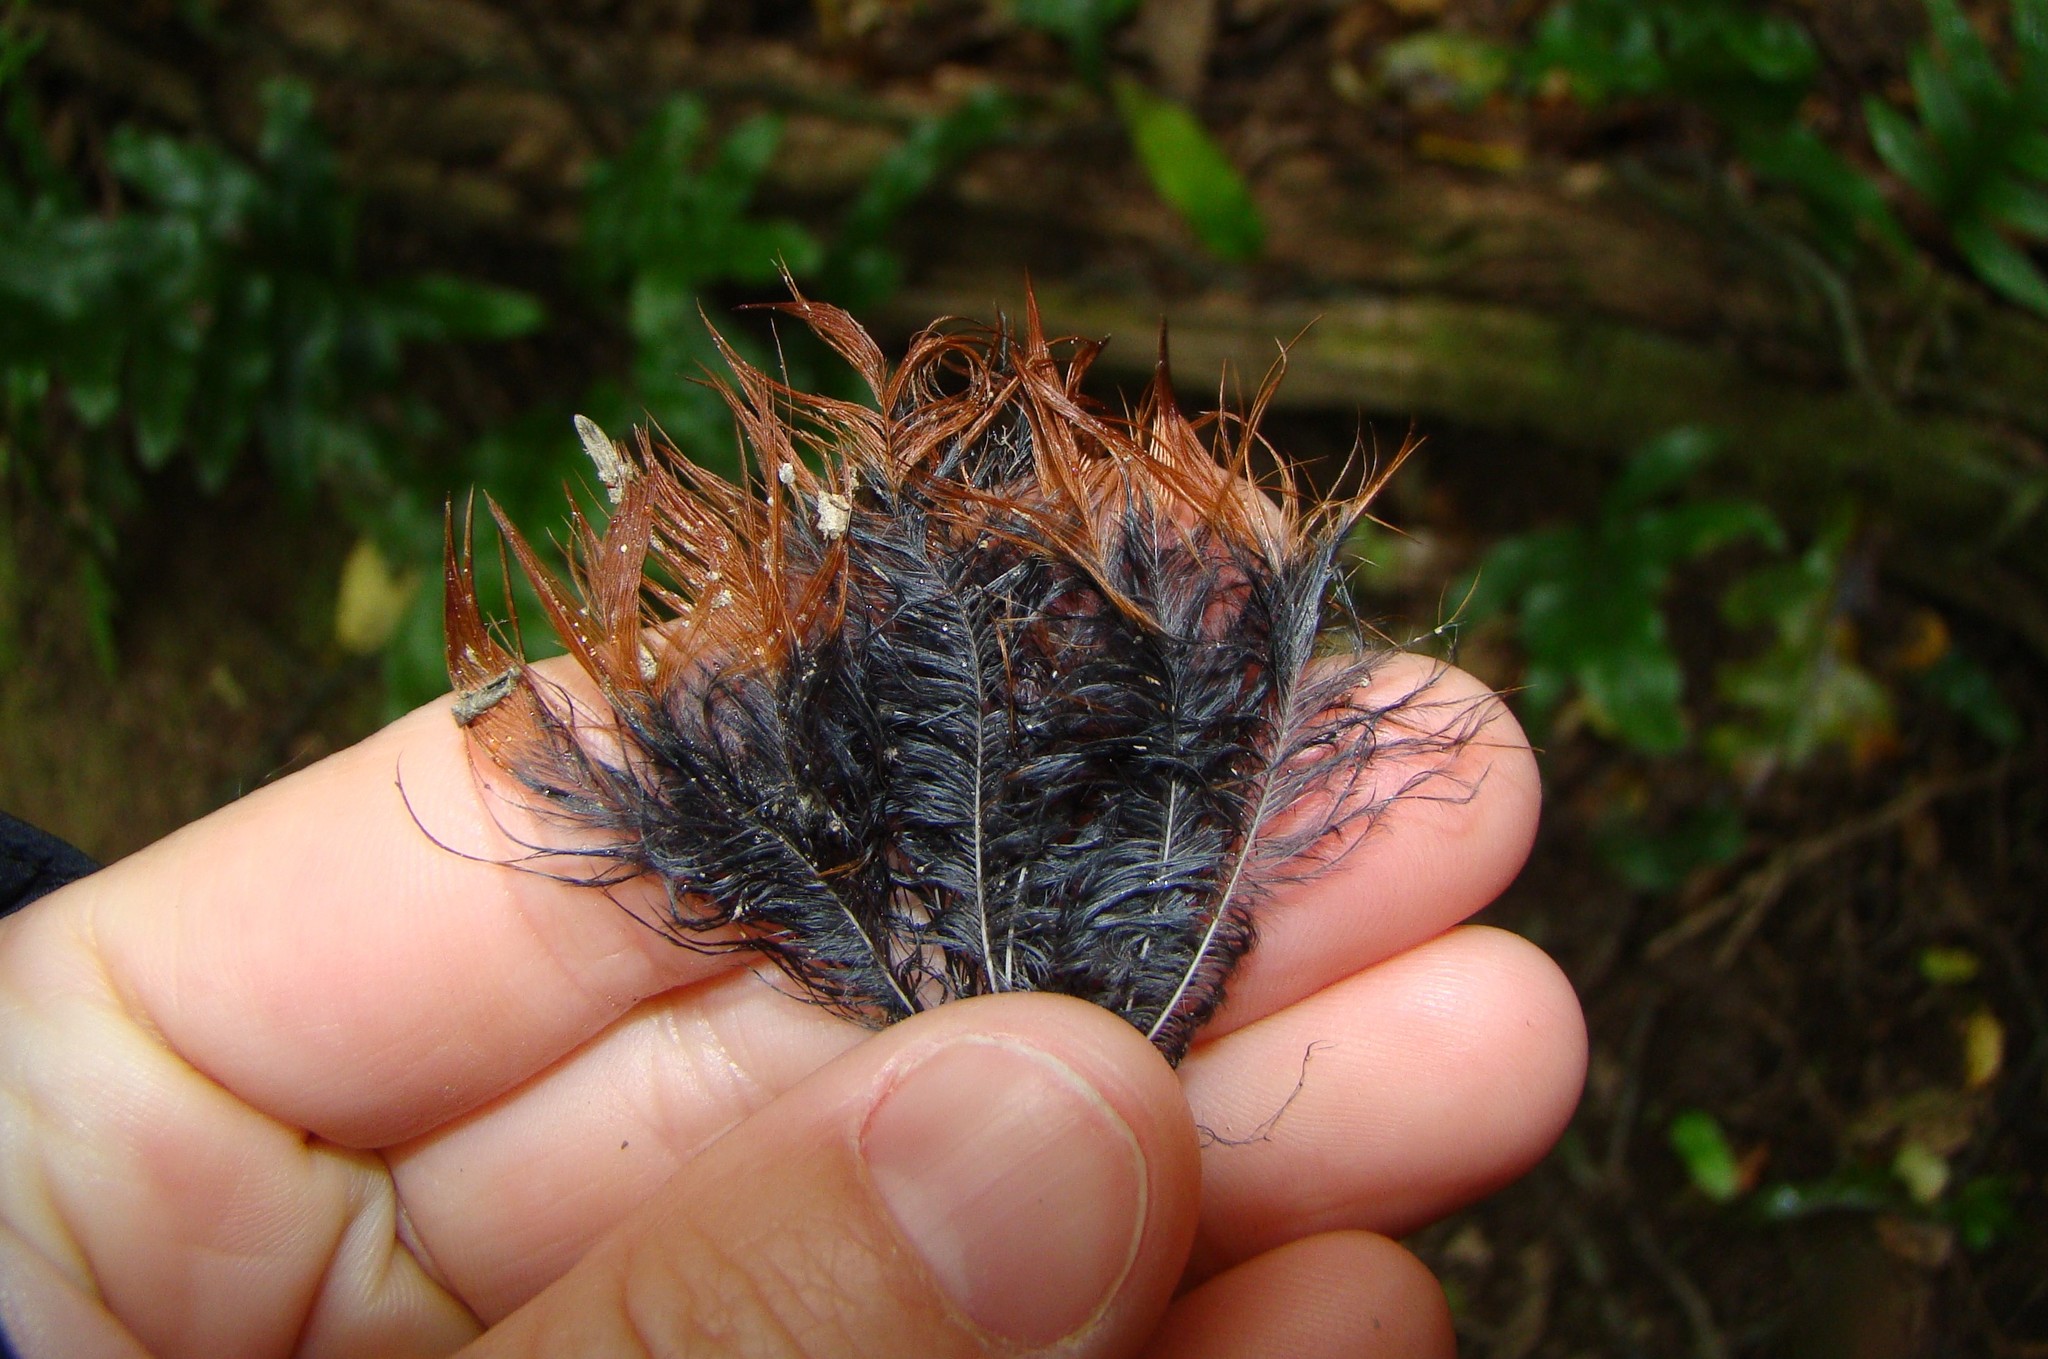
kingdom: Animalia
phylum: Chordata
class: Aves
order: Passeriformes
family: Callaeatidae
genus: Philesturnus
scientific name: Philesturnus carunculatus
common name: South island saddleback
